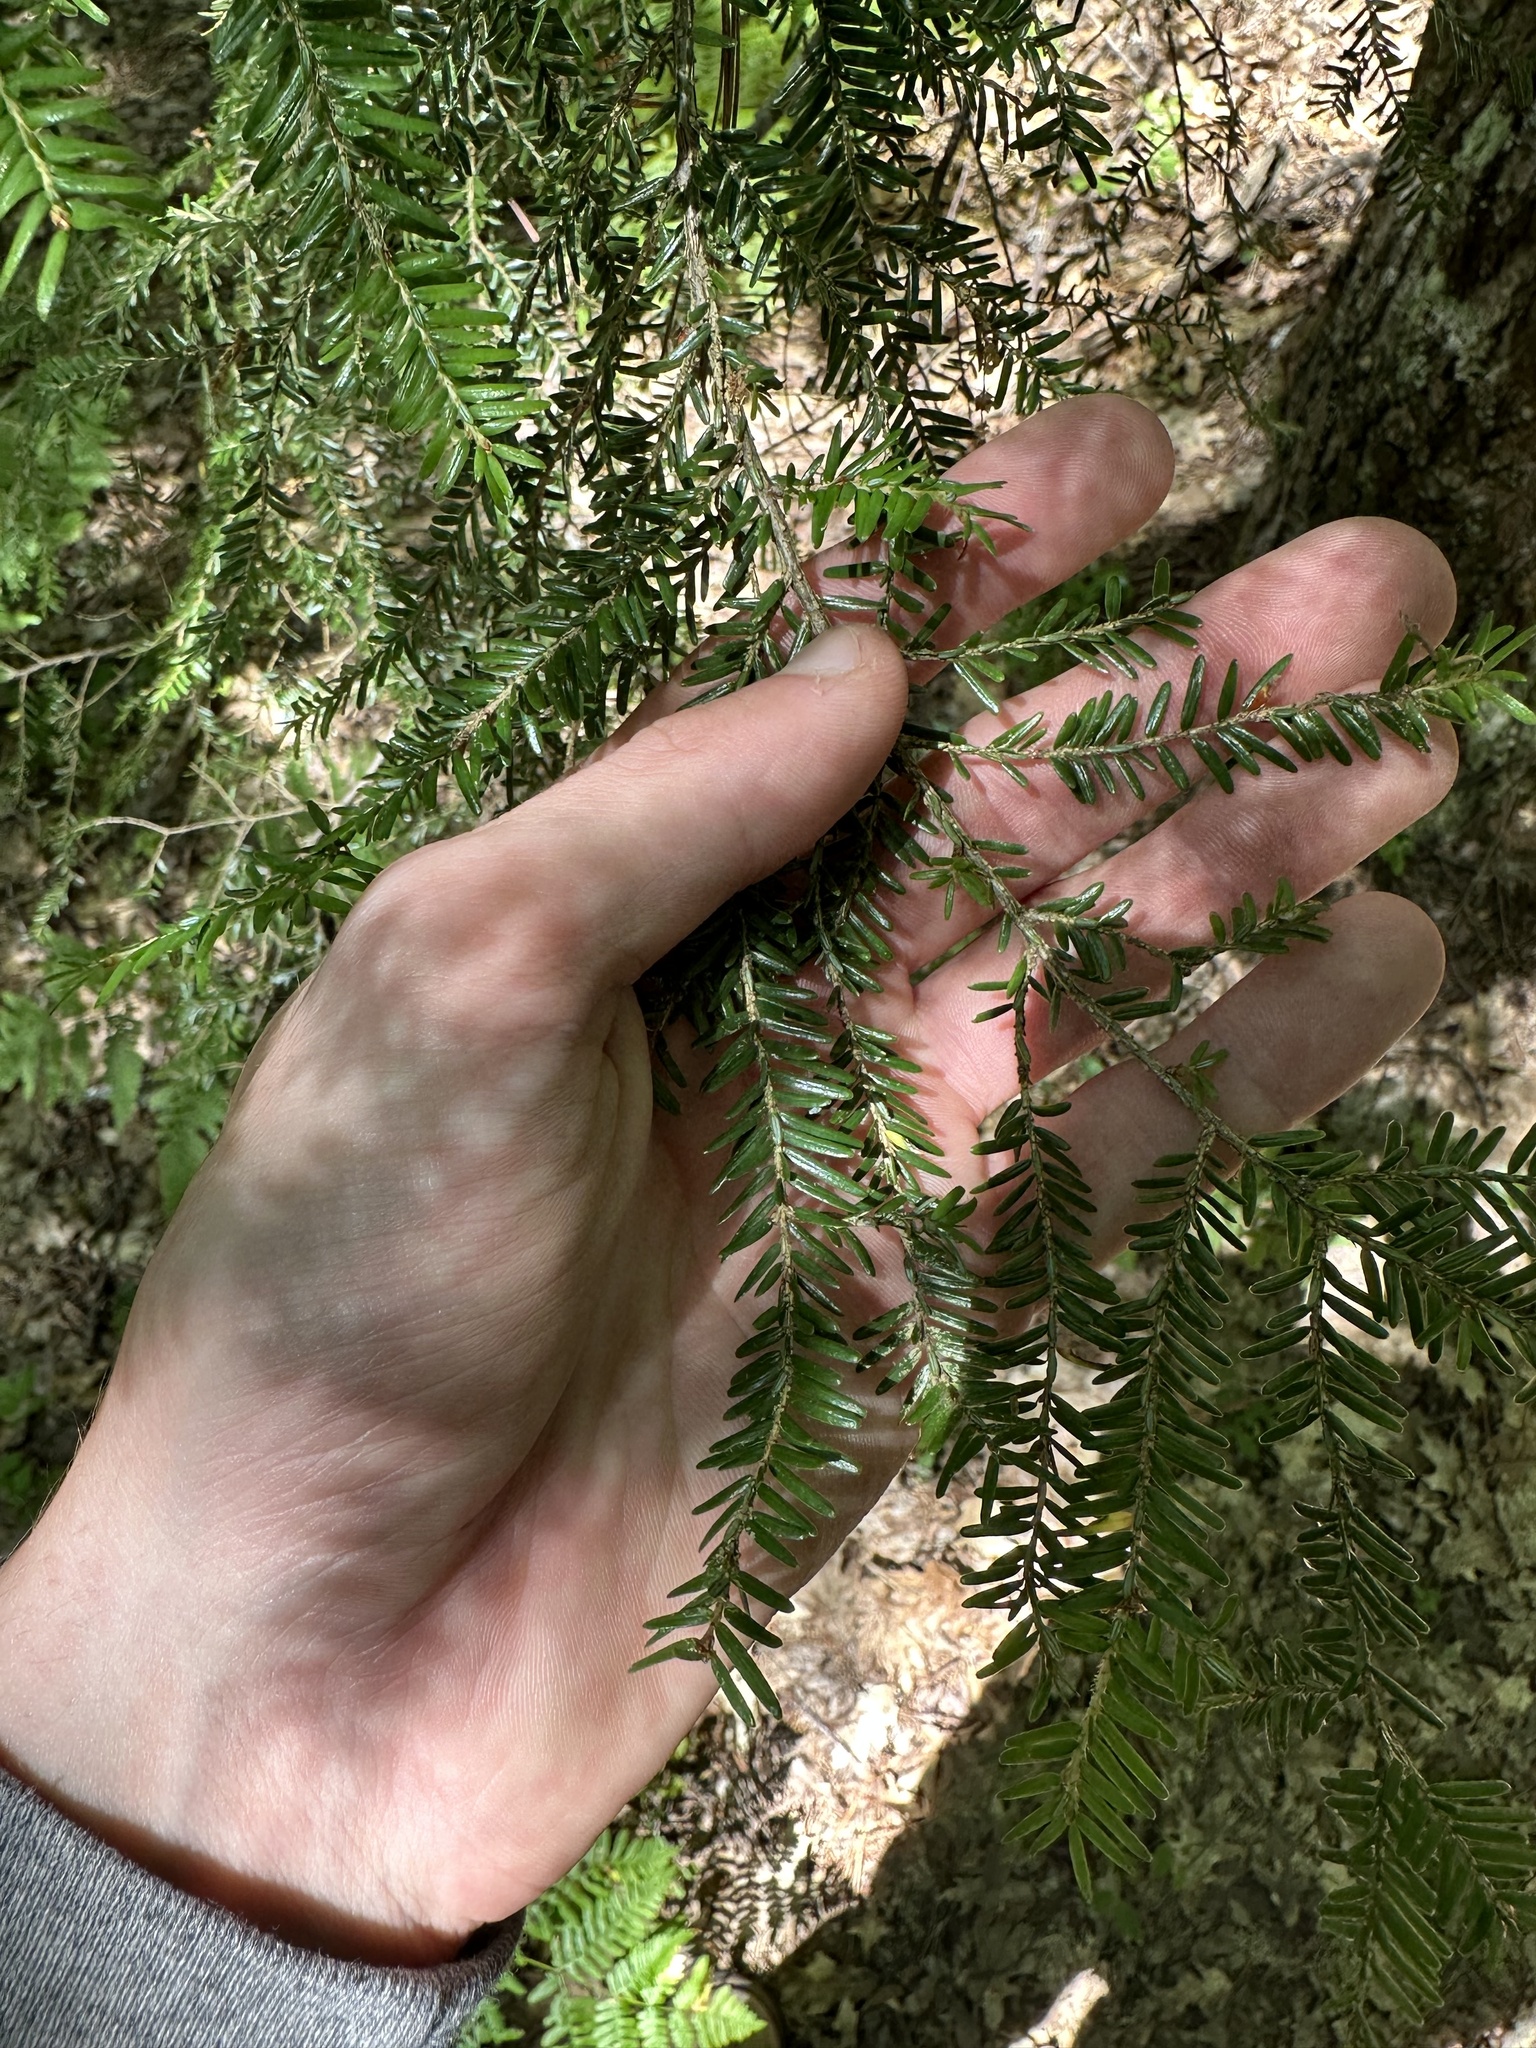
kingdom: Plantae
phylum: Tracheophyta
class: Pinopsida
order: Pinales
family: Pinaceae
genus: Tsuga
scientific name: Tsuga canadensis
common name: Eastern hemlock
